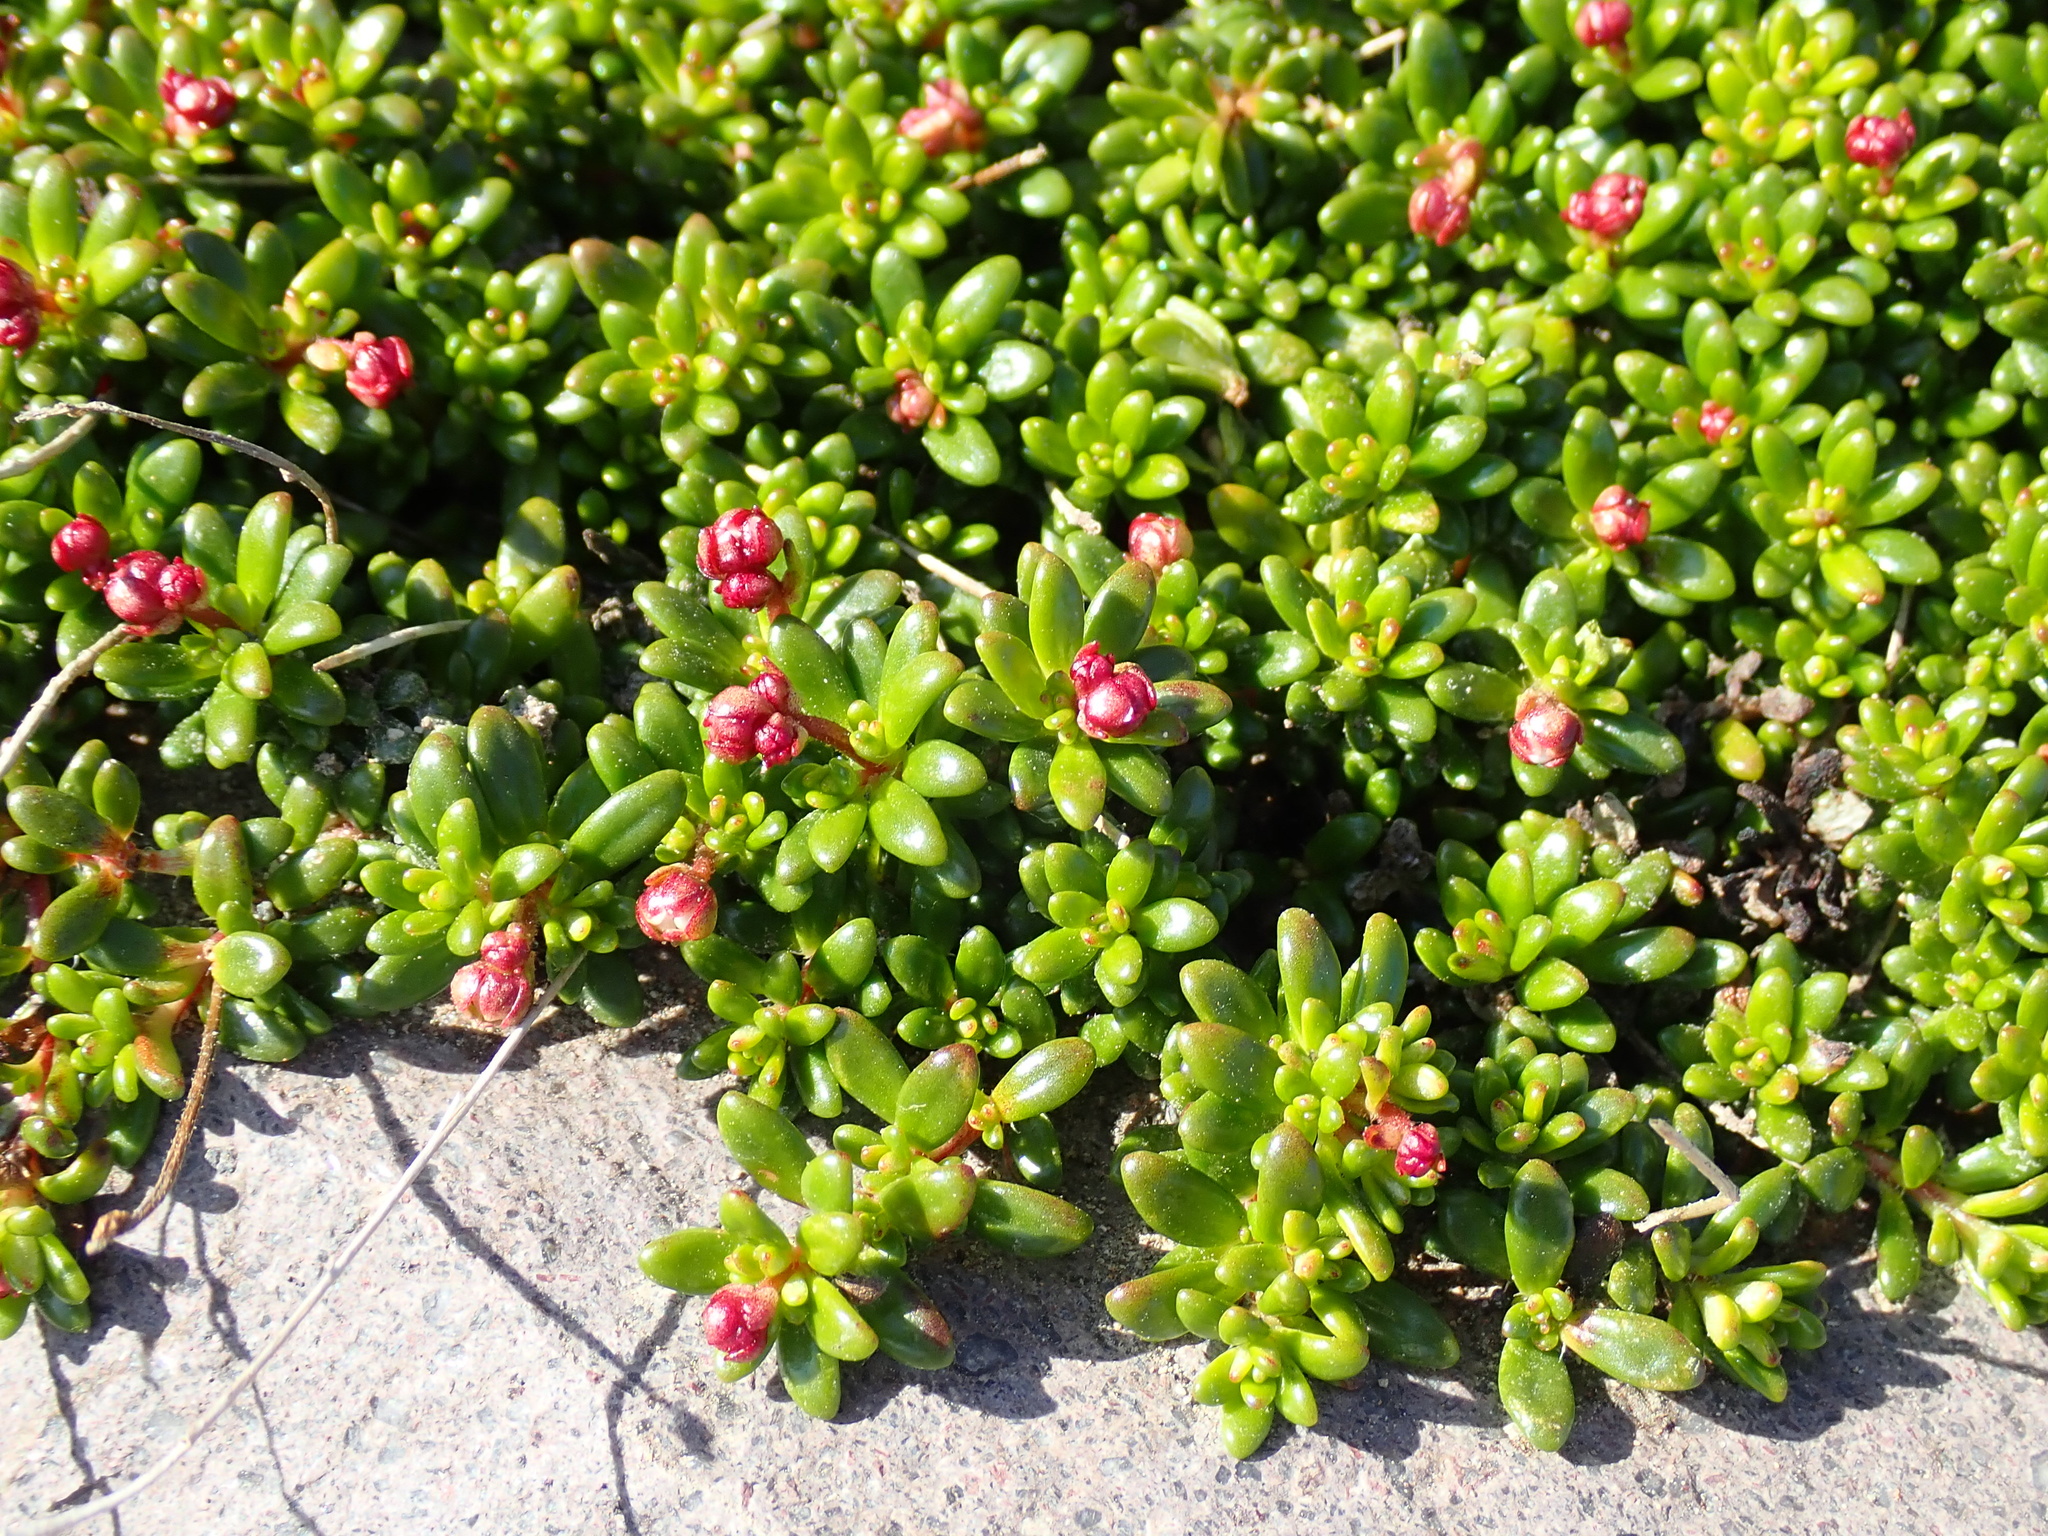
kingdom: Plantae
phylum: Tracheophyta
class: Magnoliopsida
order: Saxifragales
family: Saxifragaceae
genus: Micranthes
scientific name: Micranthes tolmiei
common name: Tolmie's saxifrage
